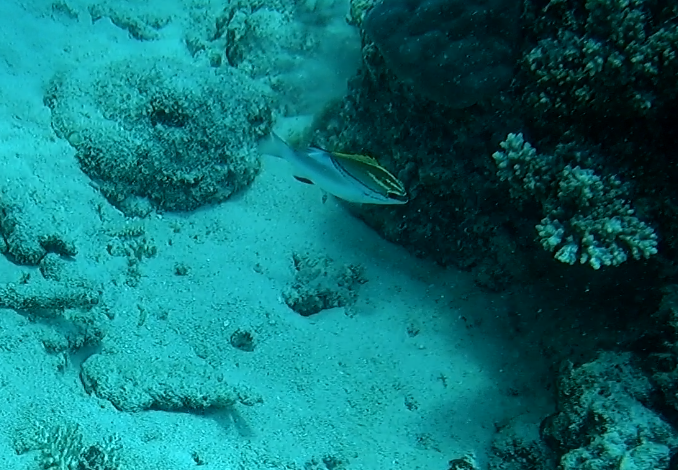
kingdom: Animalia
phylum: Chordata
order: Perciformes
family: Nemipteridae
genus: Scolopsis
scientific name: Scolopsis bilineata
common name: Two-lined monocle bream
